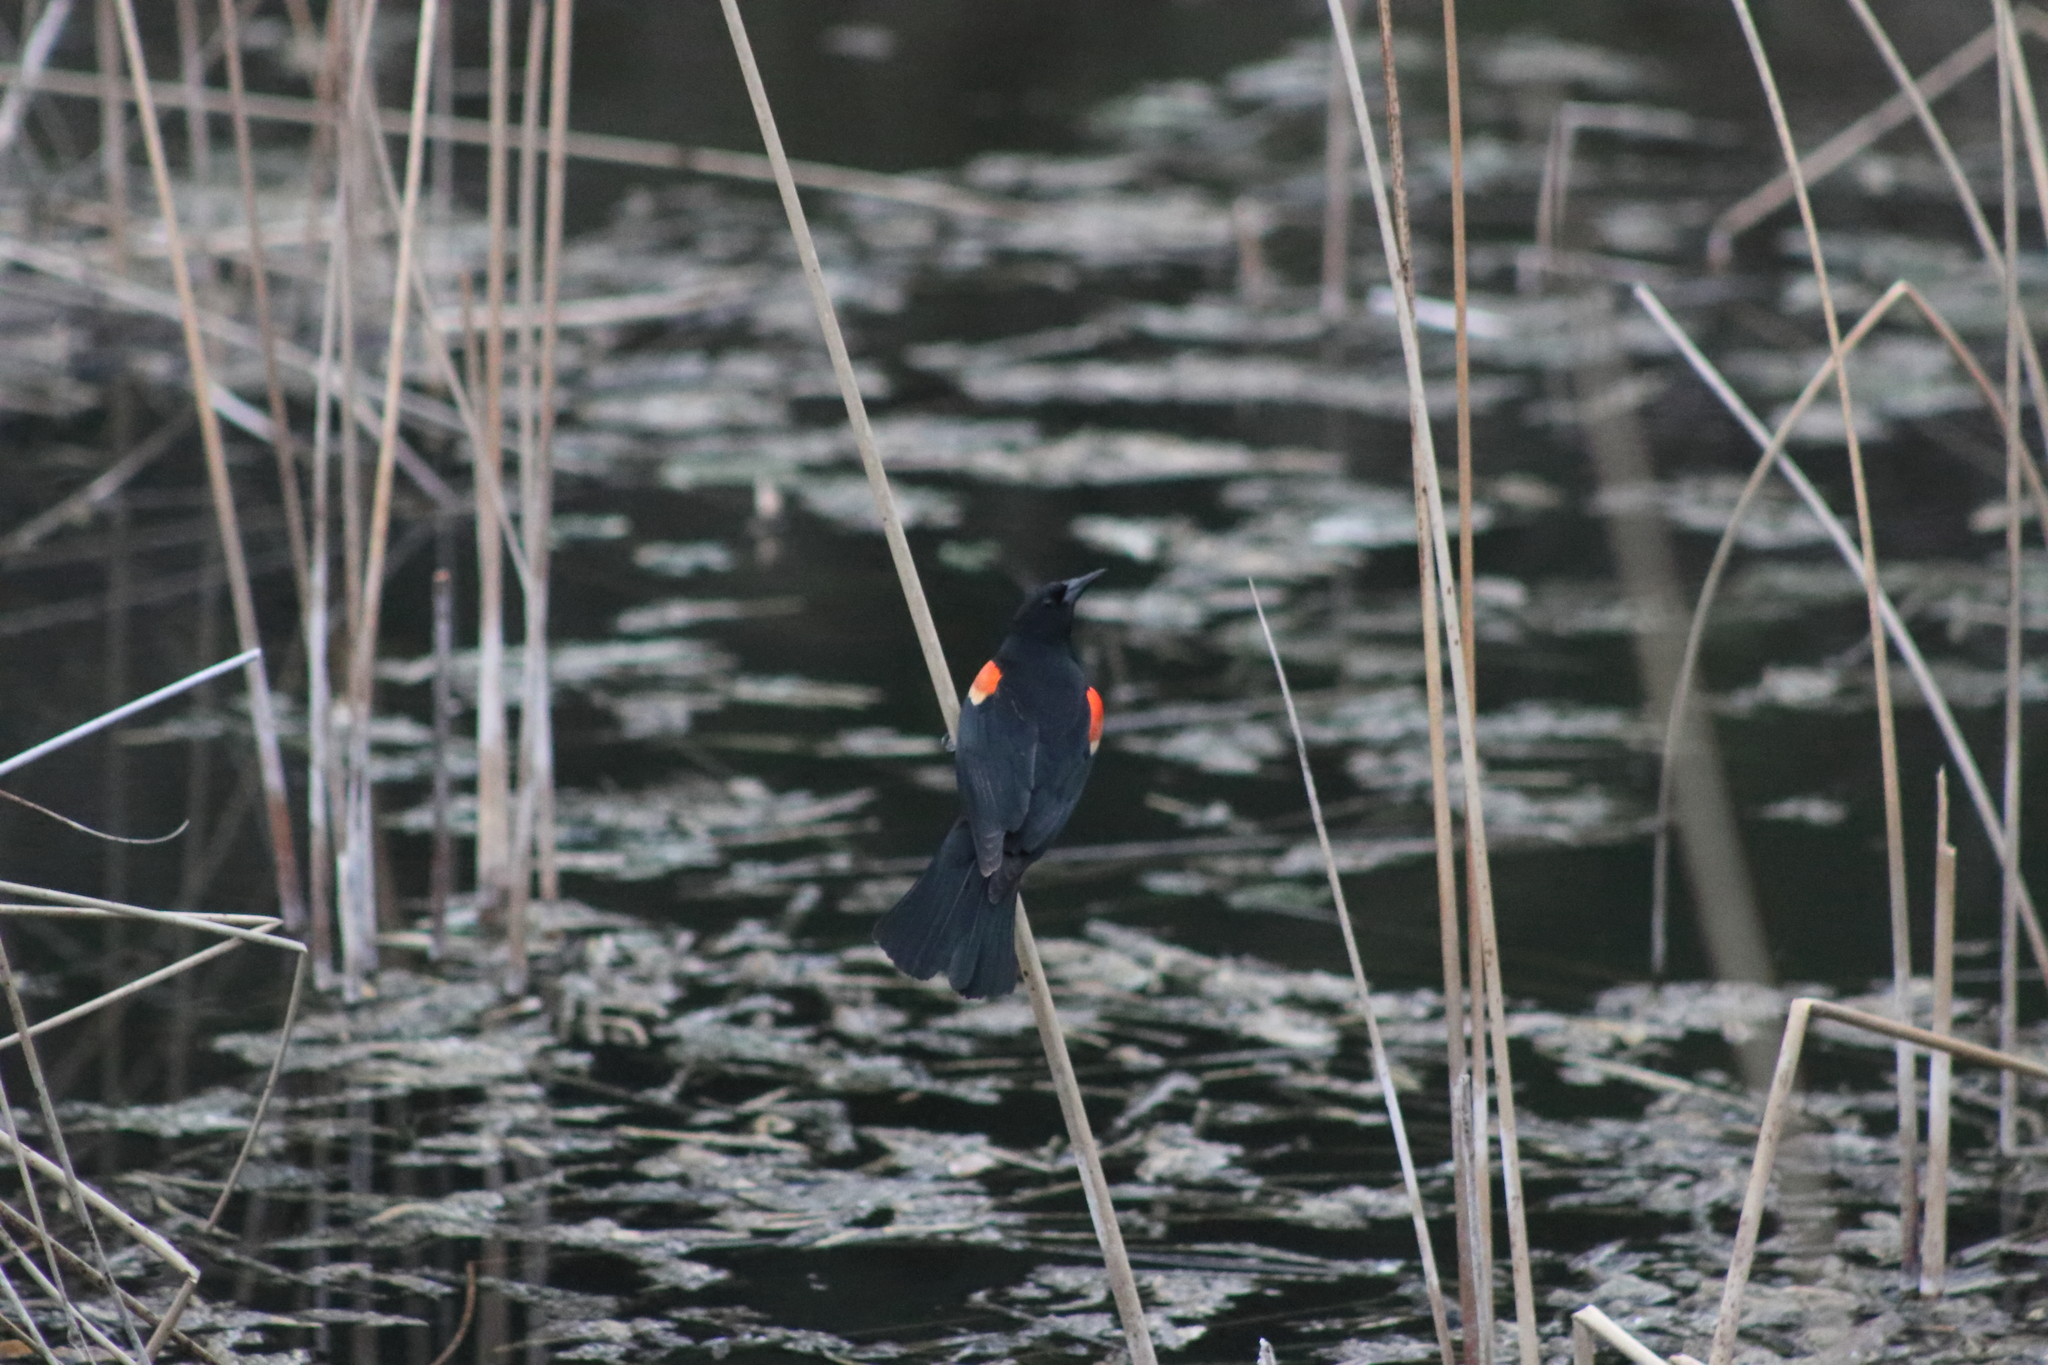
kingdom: Animalia
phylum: Chordata
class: Aves
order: Passeriformes
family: Icteridae
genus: Agelaius
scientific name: Agelaius phoeniceus
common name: Red-winged blackbird
